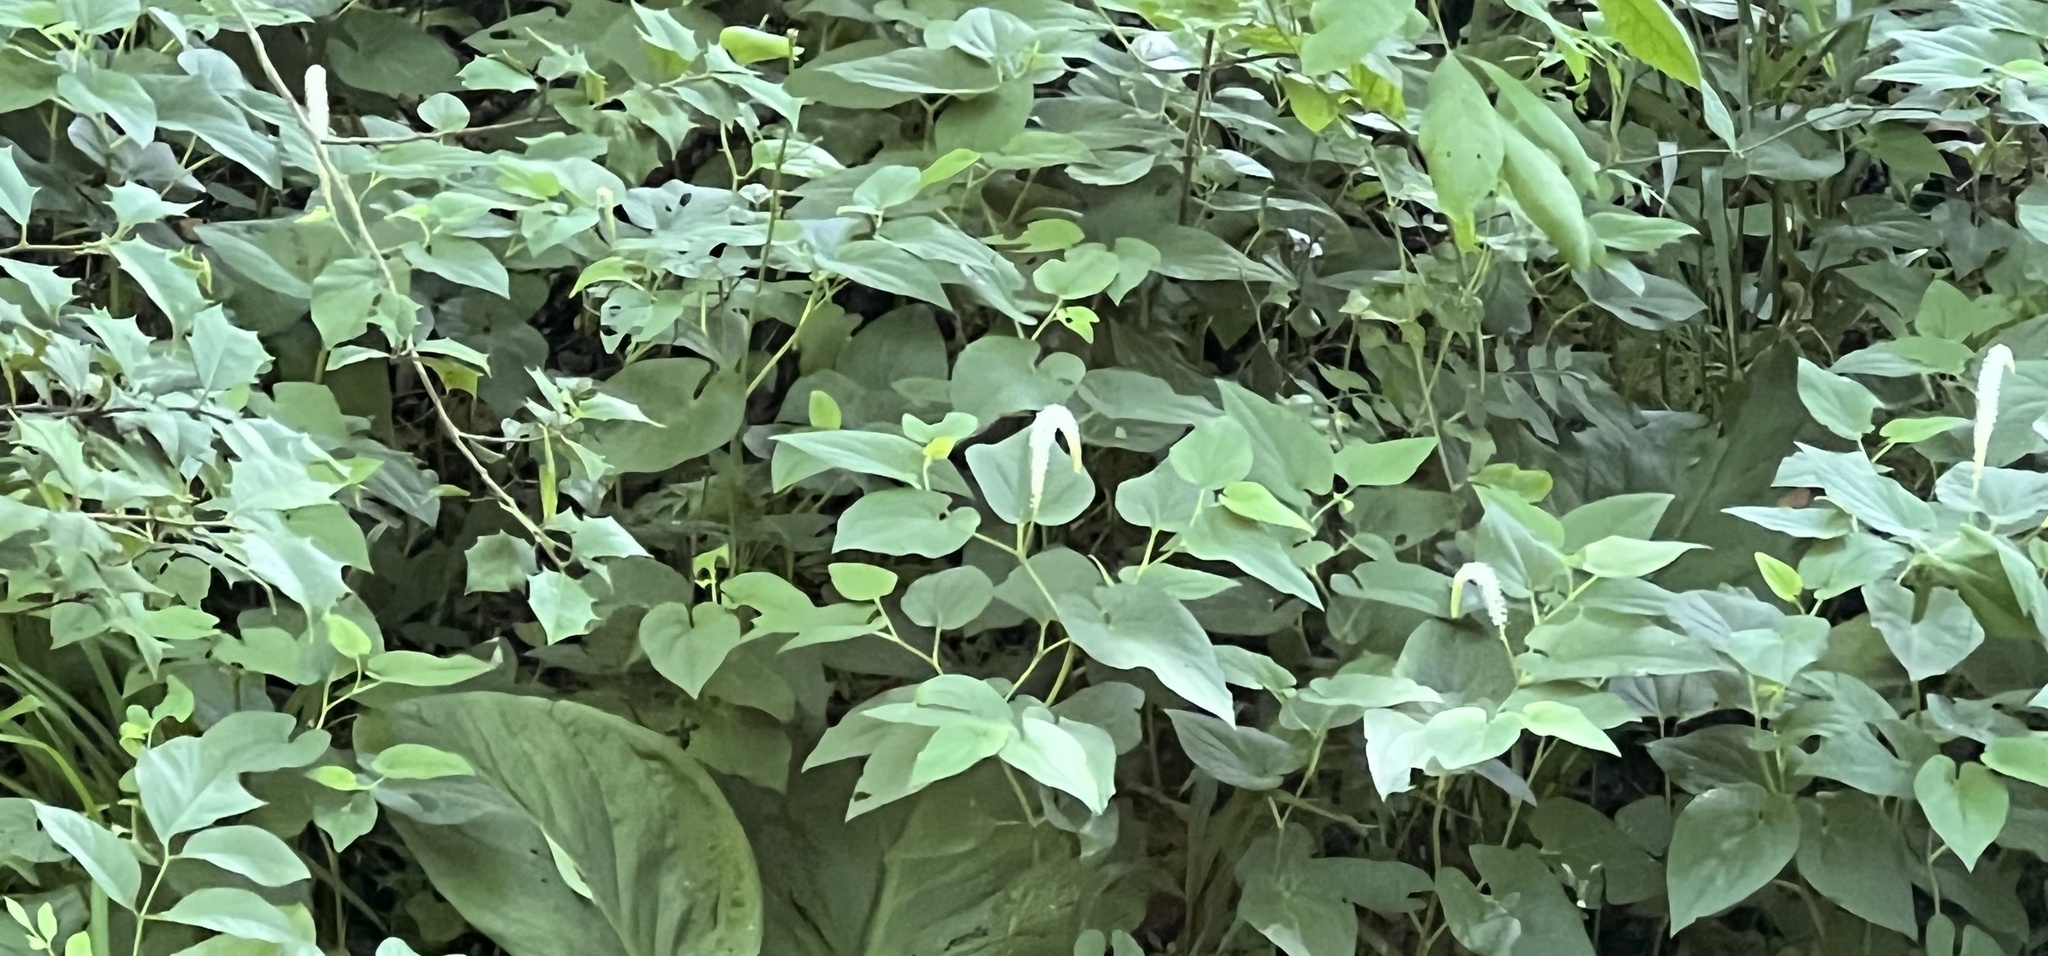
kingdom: Plantae
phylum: Tracheophyta
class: Magnoliopsida
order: Piperales
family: Saururaceae
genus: Saururus
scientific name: Saururus cernuus
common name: Lizard's-tail
